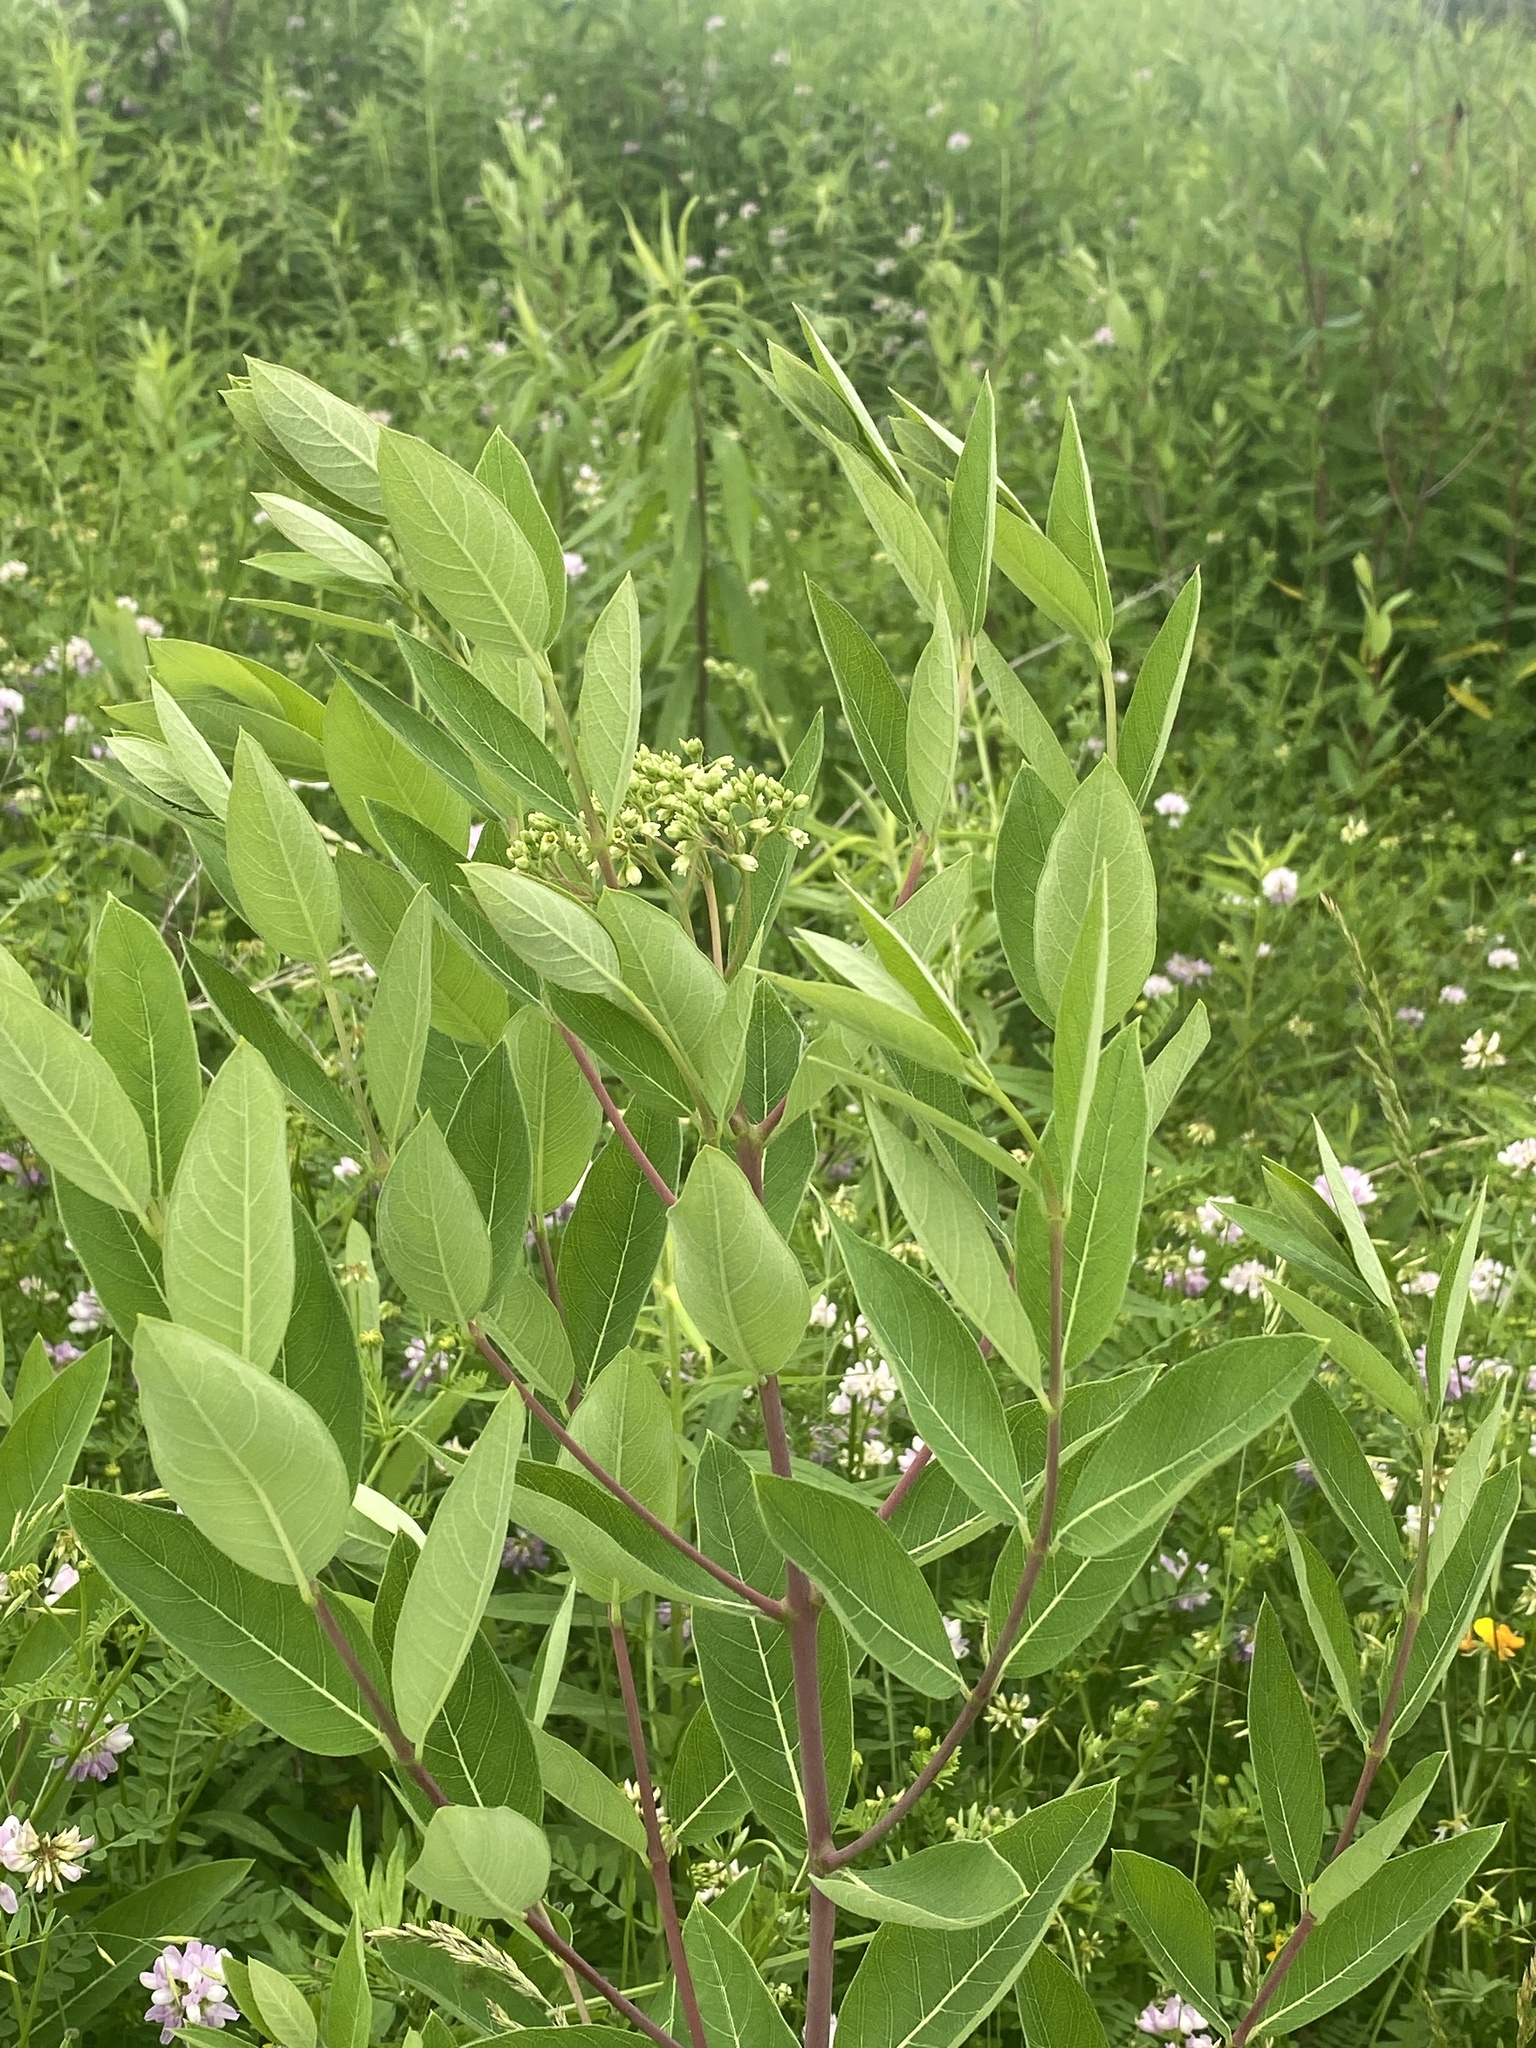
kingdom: Plantae
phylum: Tracheophyta
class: Magnoliopsida
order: Gentianales
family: Apocynaceae
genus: Apocynum
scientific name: Apocynum cannabinum
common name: Hemp dogbane
